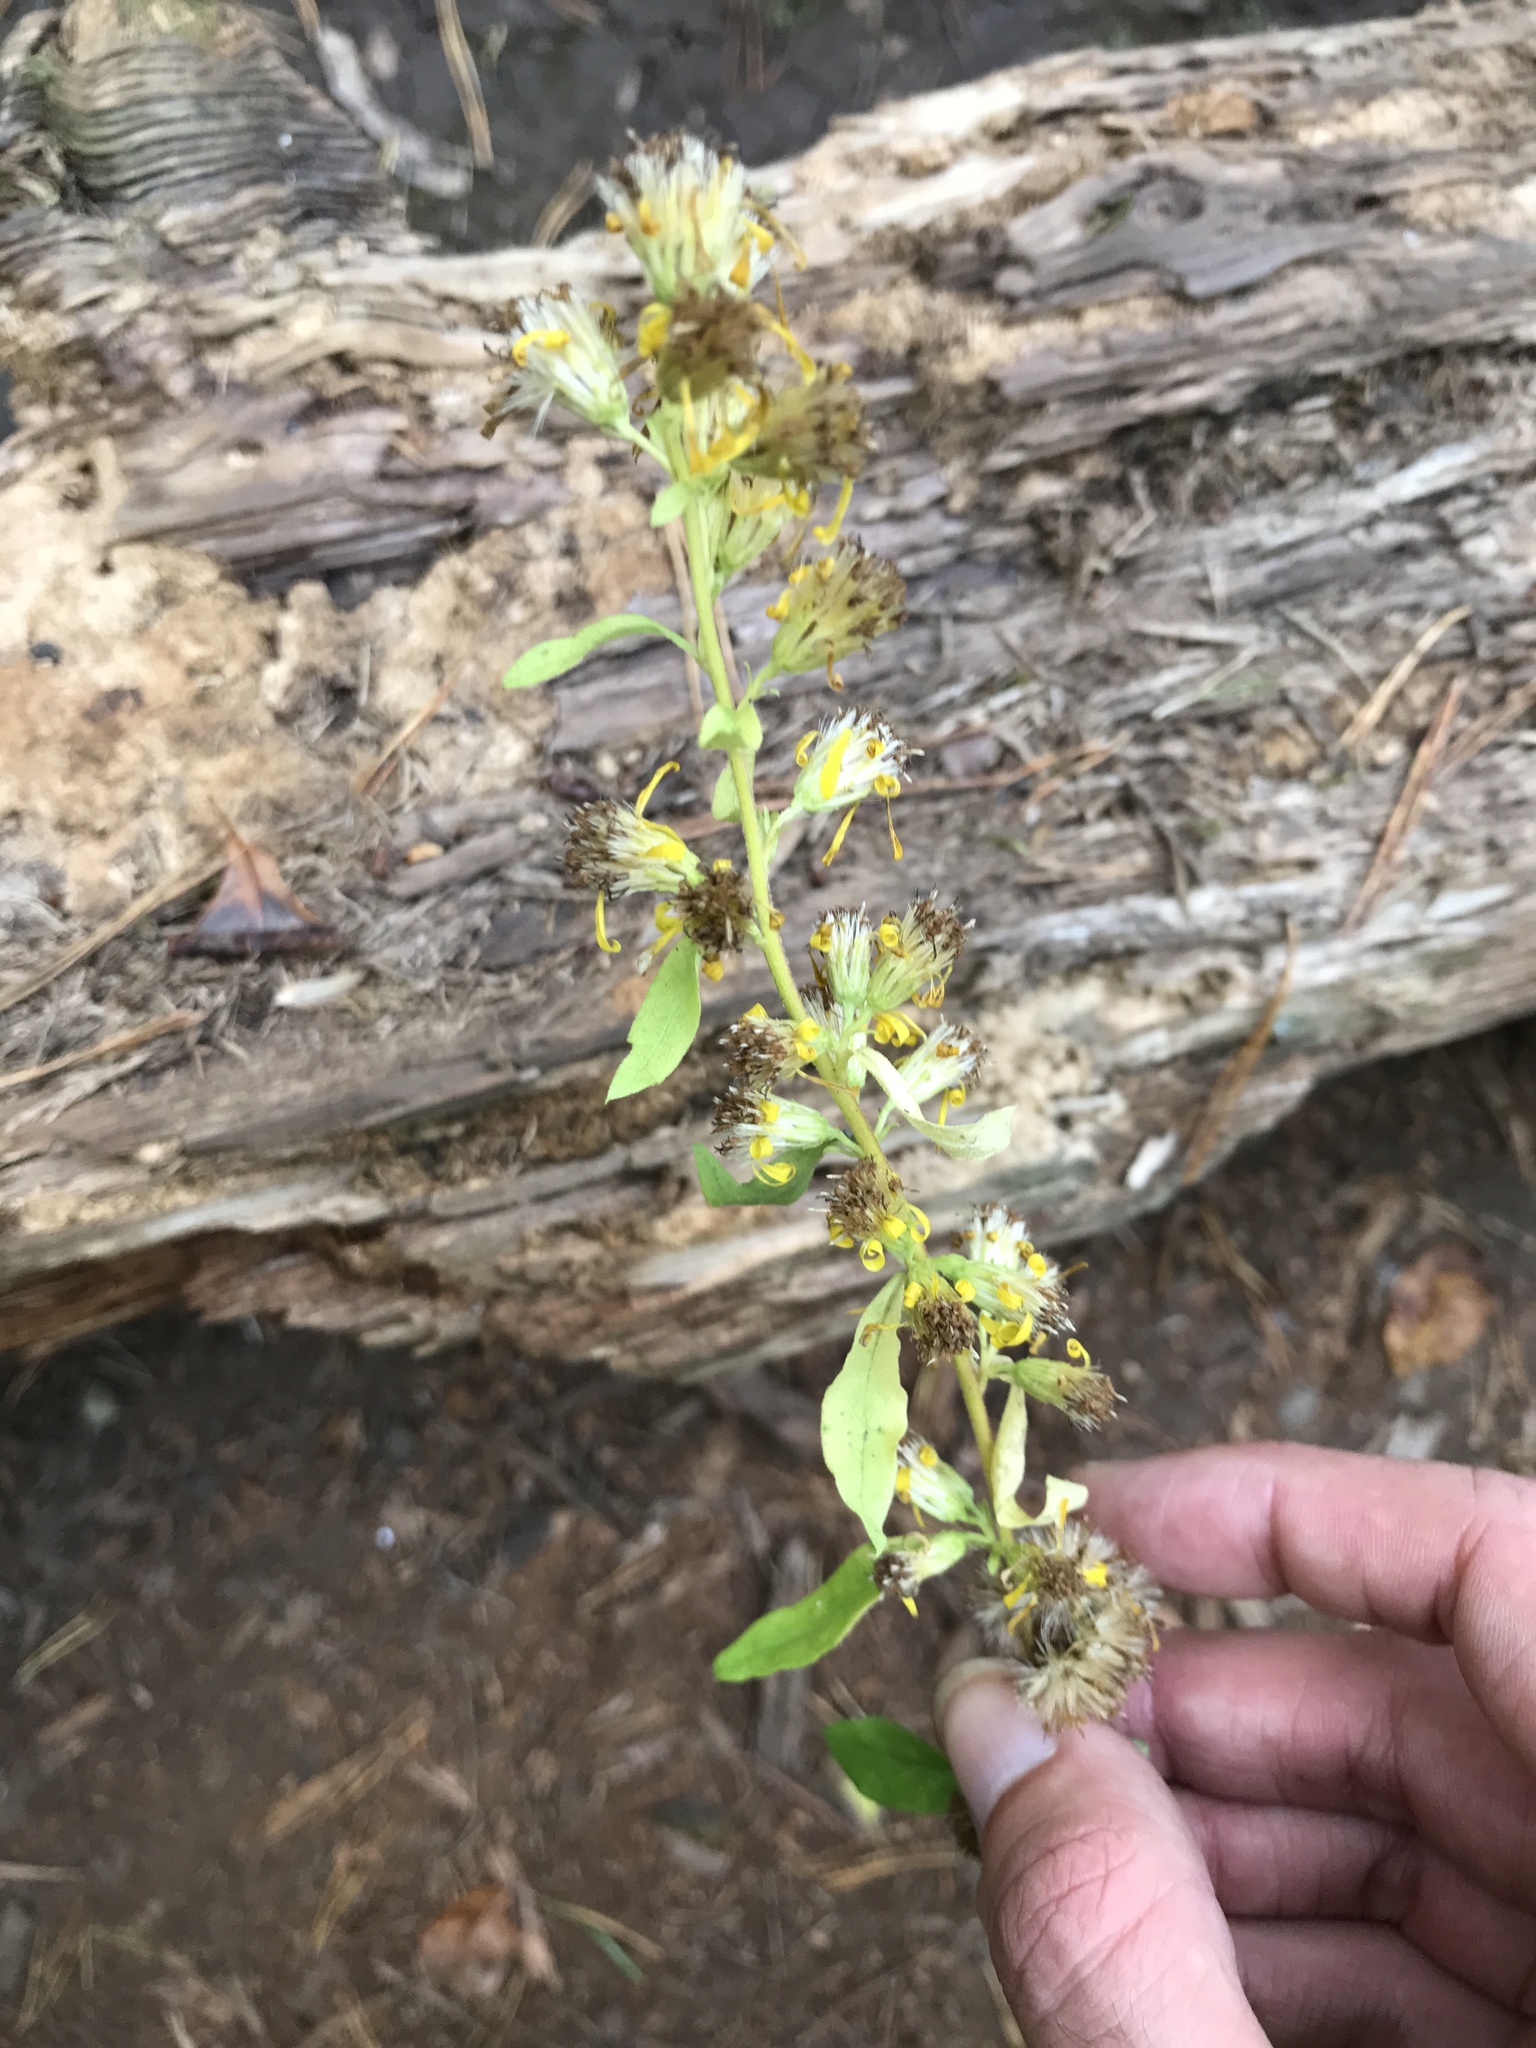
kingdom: Plantae
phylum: Tracheophyta
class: Magnoliopsida
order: Asterales
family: Asteraceae
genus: Solidago
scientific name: Solidago virgaurea
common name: Goldenrod
